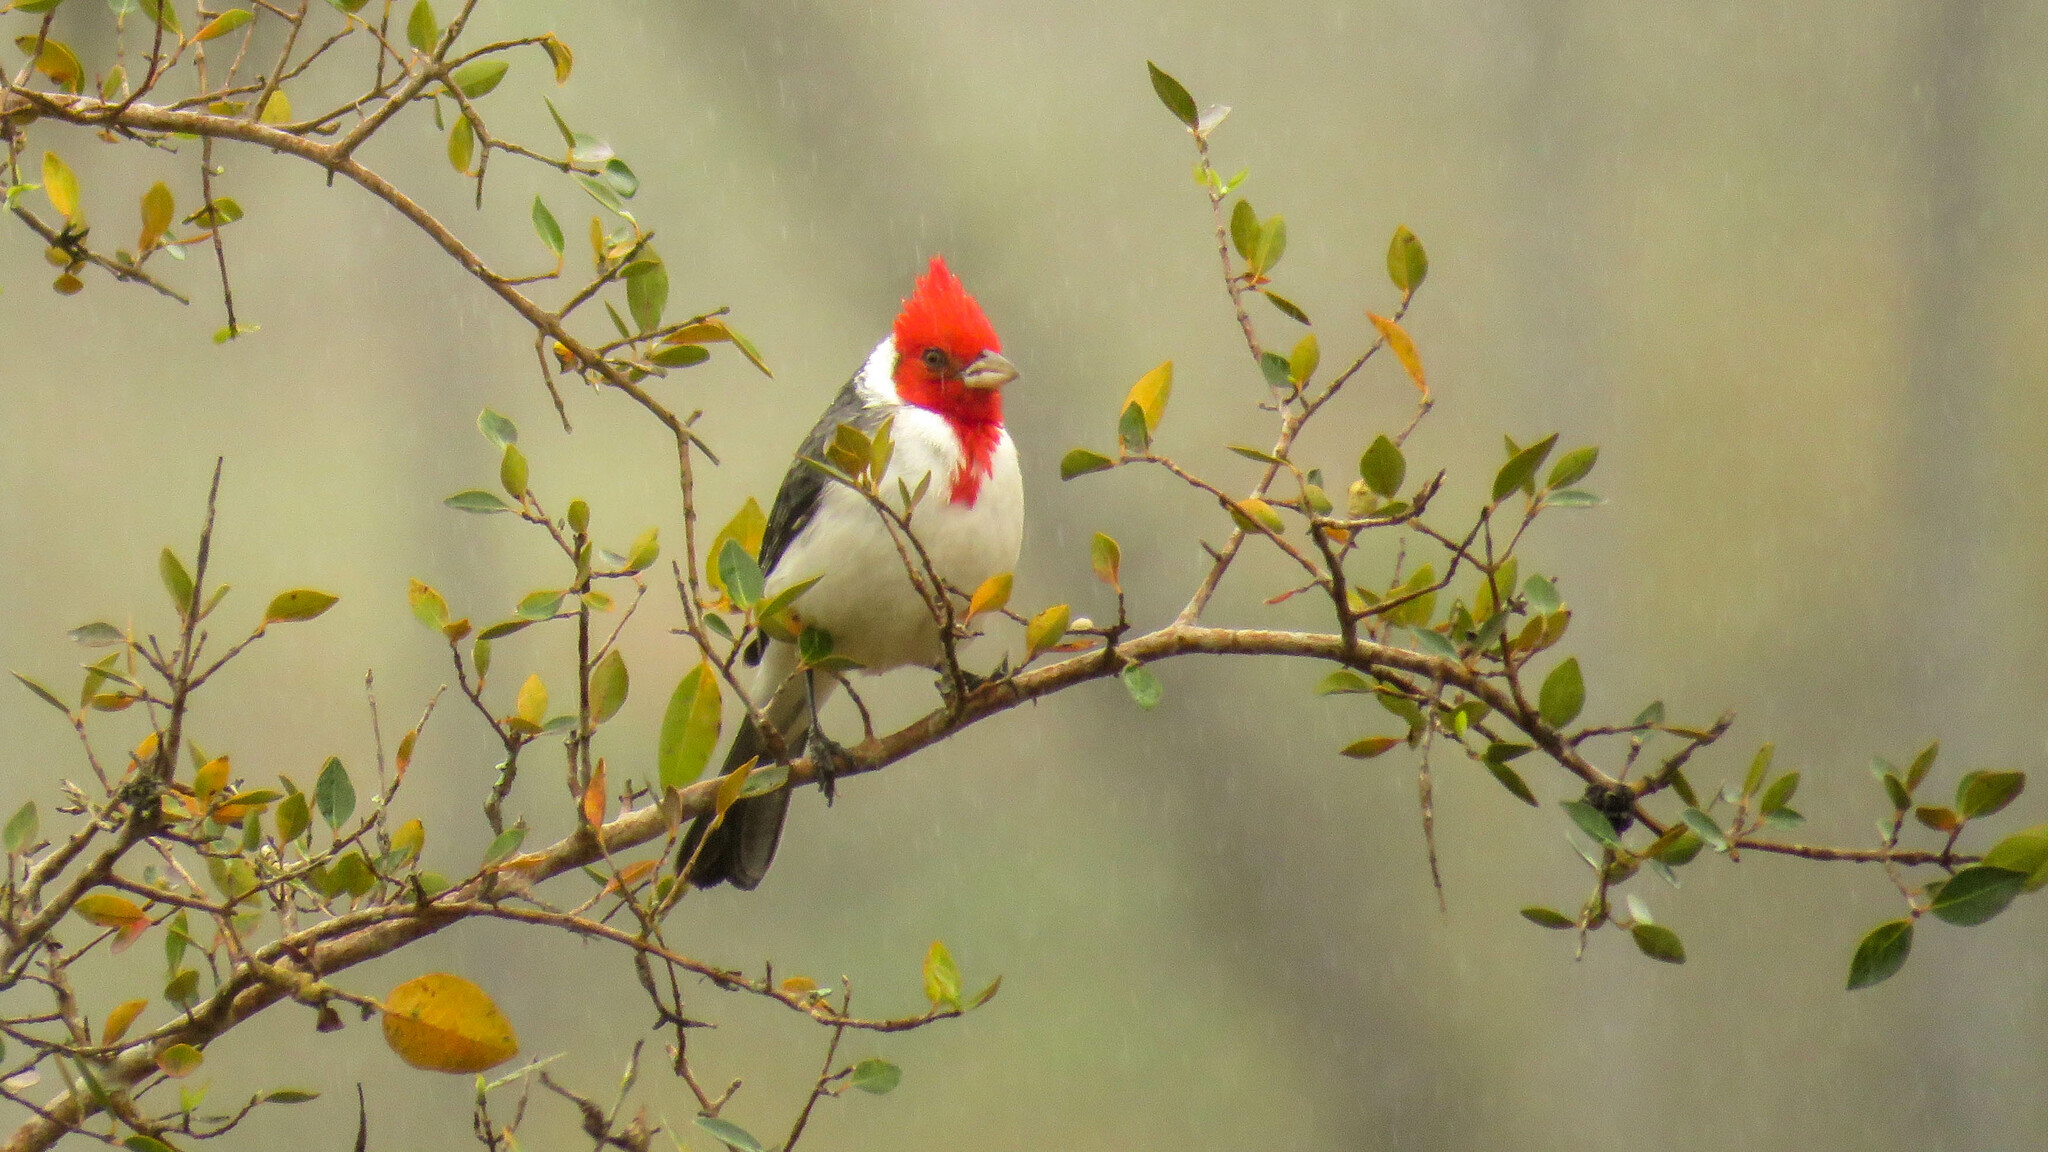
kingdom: Animalia
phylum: Chordata
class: Aves
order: Passeriformes
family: Thraupidae
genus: Paroaria
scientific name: Paroaria coronata
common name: Red-crested cardinal
